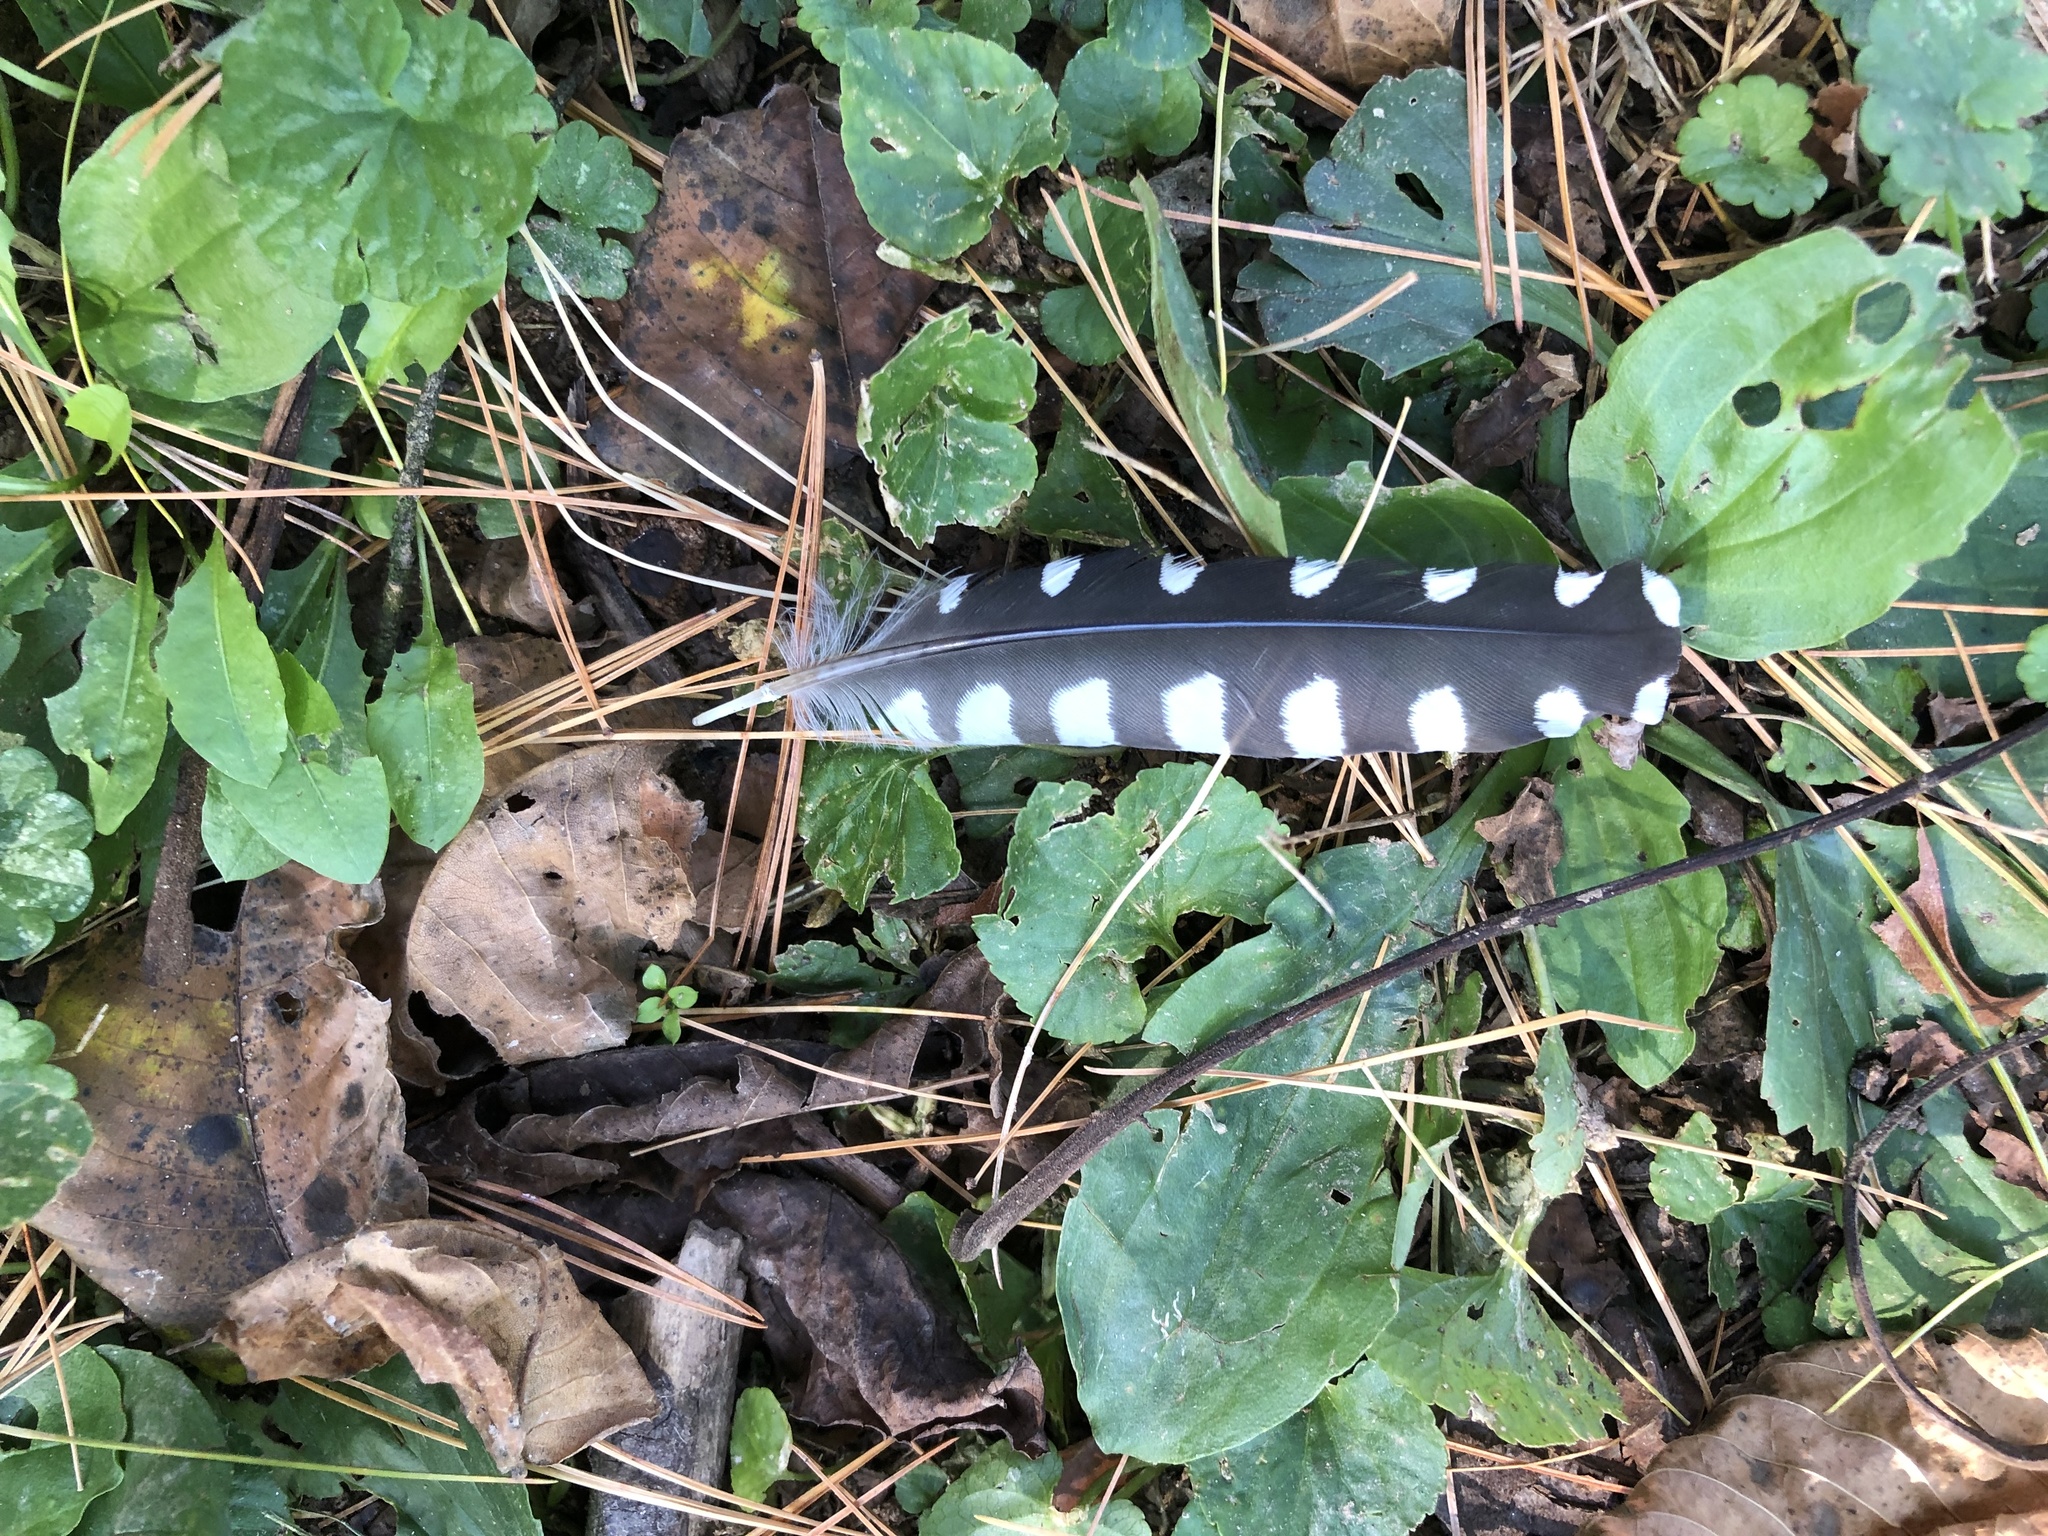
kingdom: Animalia
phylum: Chordata
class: Aves
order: Piciformes
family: Picidae
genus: Melanerpes
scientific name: Melanerpes carolinus
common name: Red-bellied woodpecker
